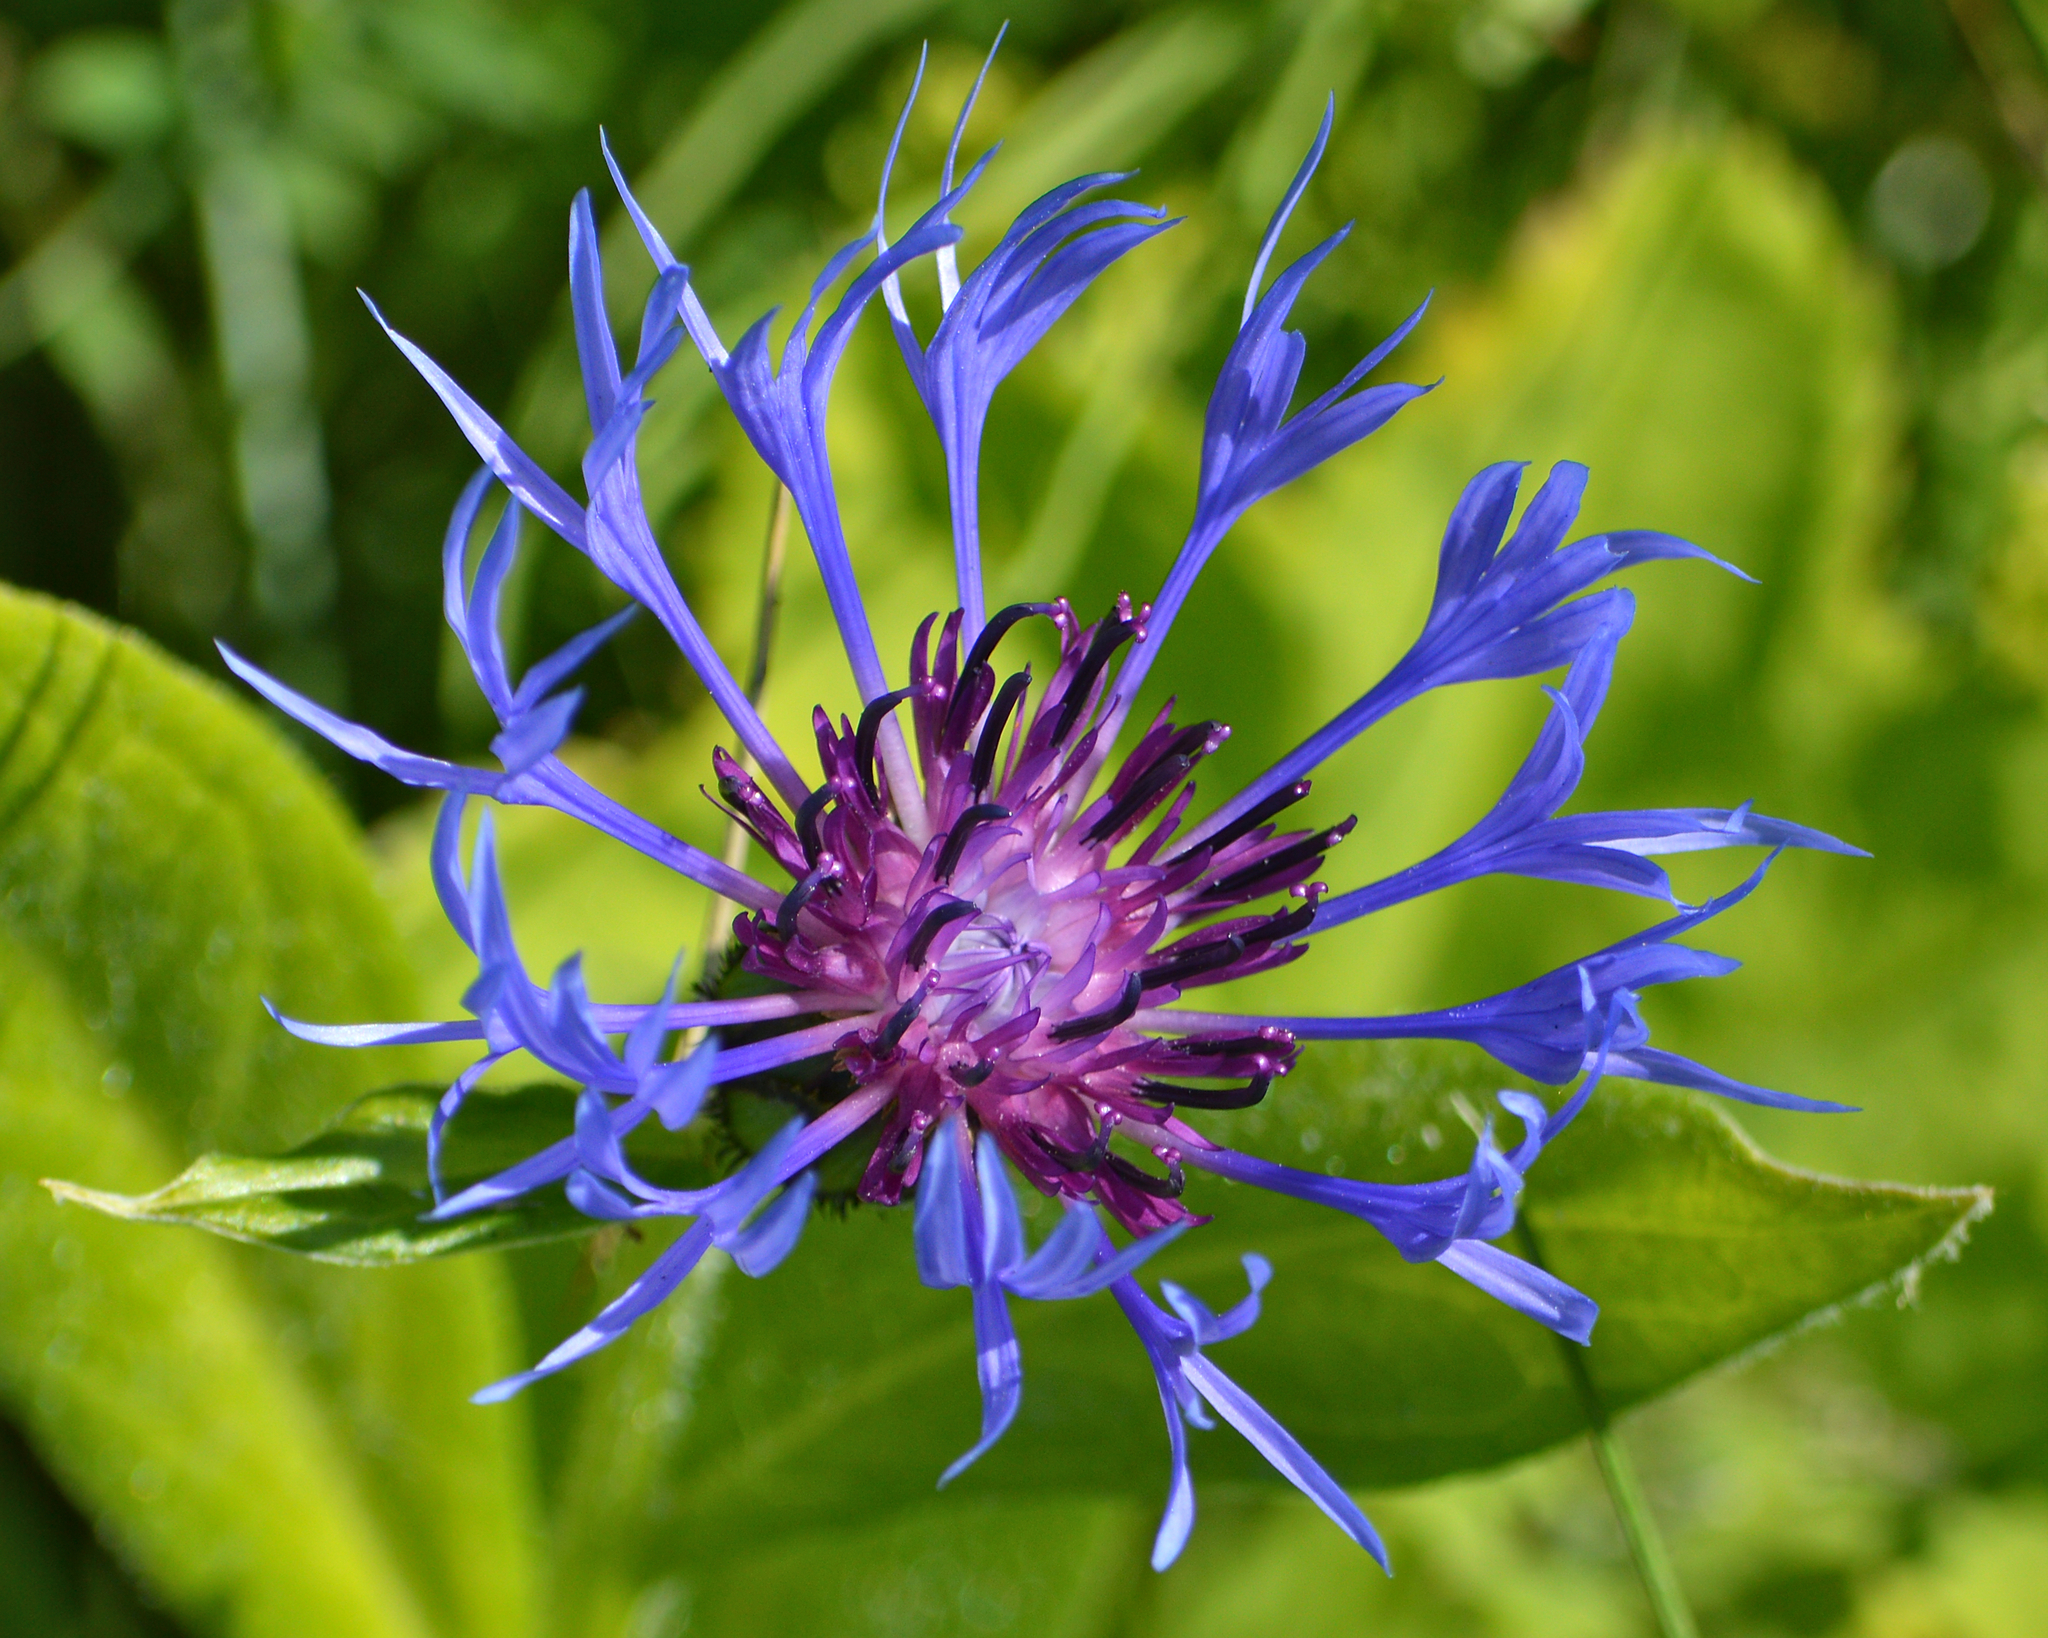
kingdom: Plantae
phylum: Tracheophyta
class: Magnoliopsida
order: Asterales
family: Asteraceae
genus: Centaurea
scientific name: Centaurea montana
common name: Perennial cornflower
